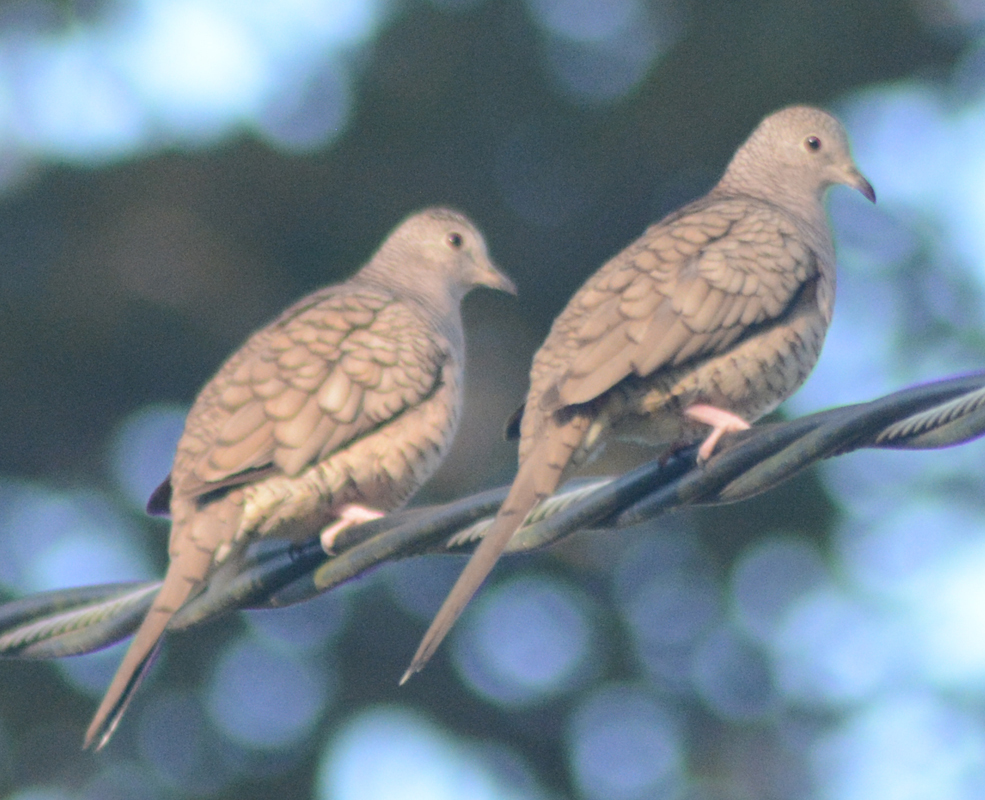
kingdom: Animalia
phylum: Chordata
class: Aves
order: Columbiformes
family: Columbidae
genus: Columbina
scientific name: Columbina inca
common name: Inca dove
